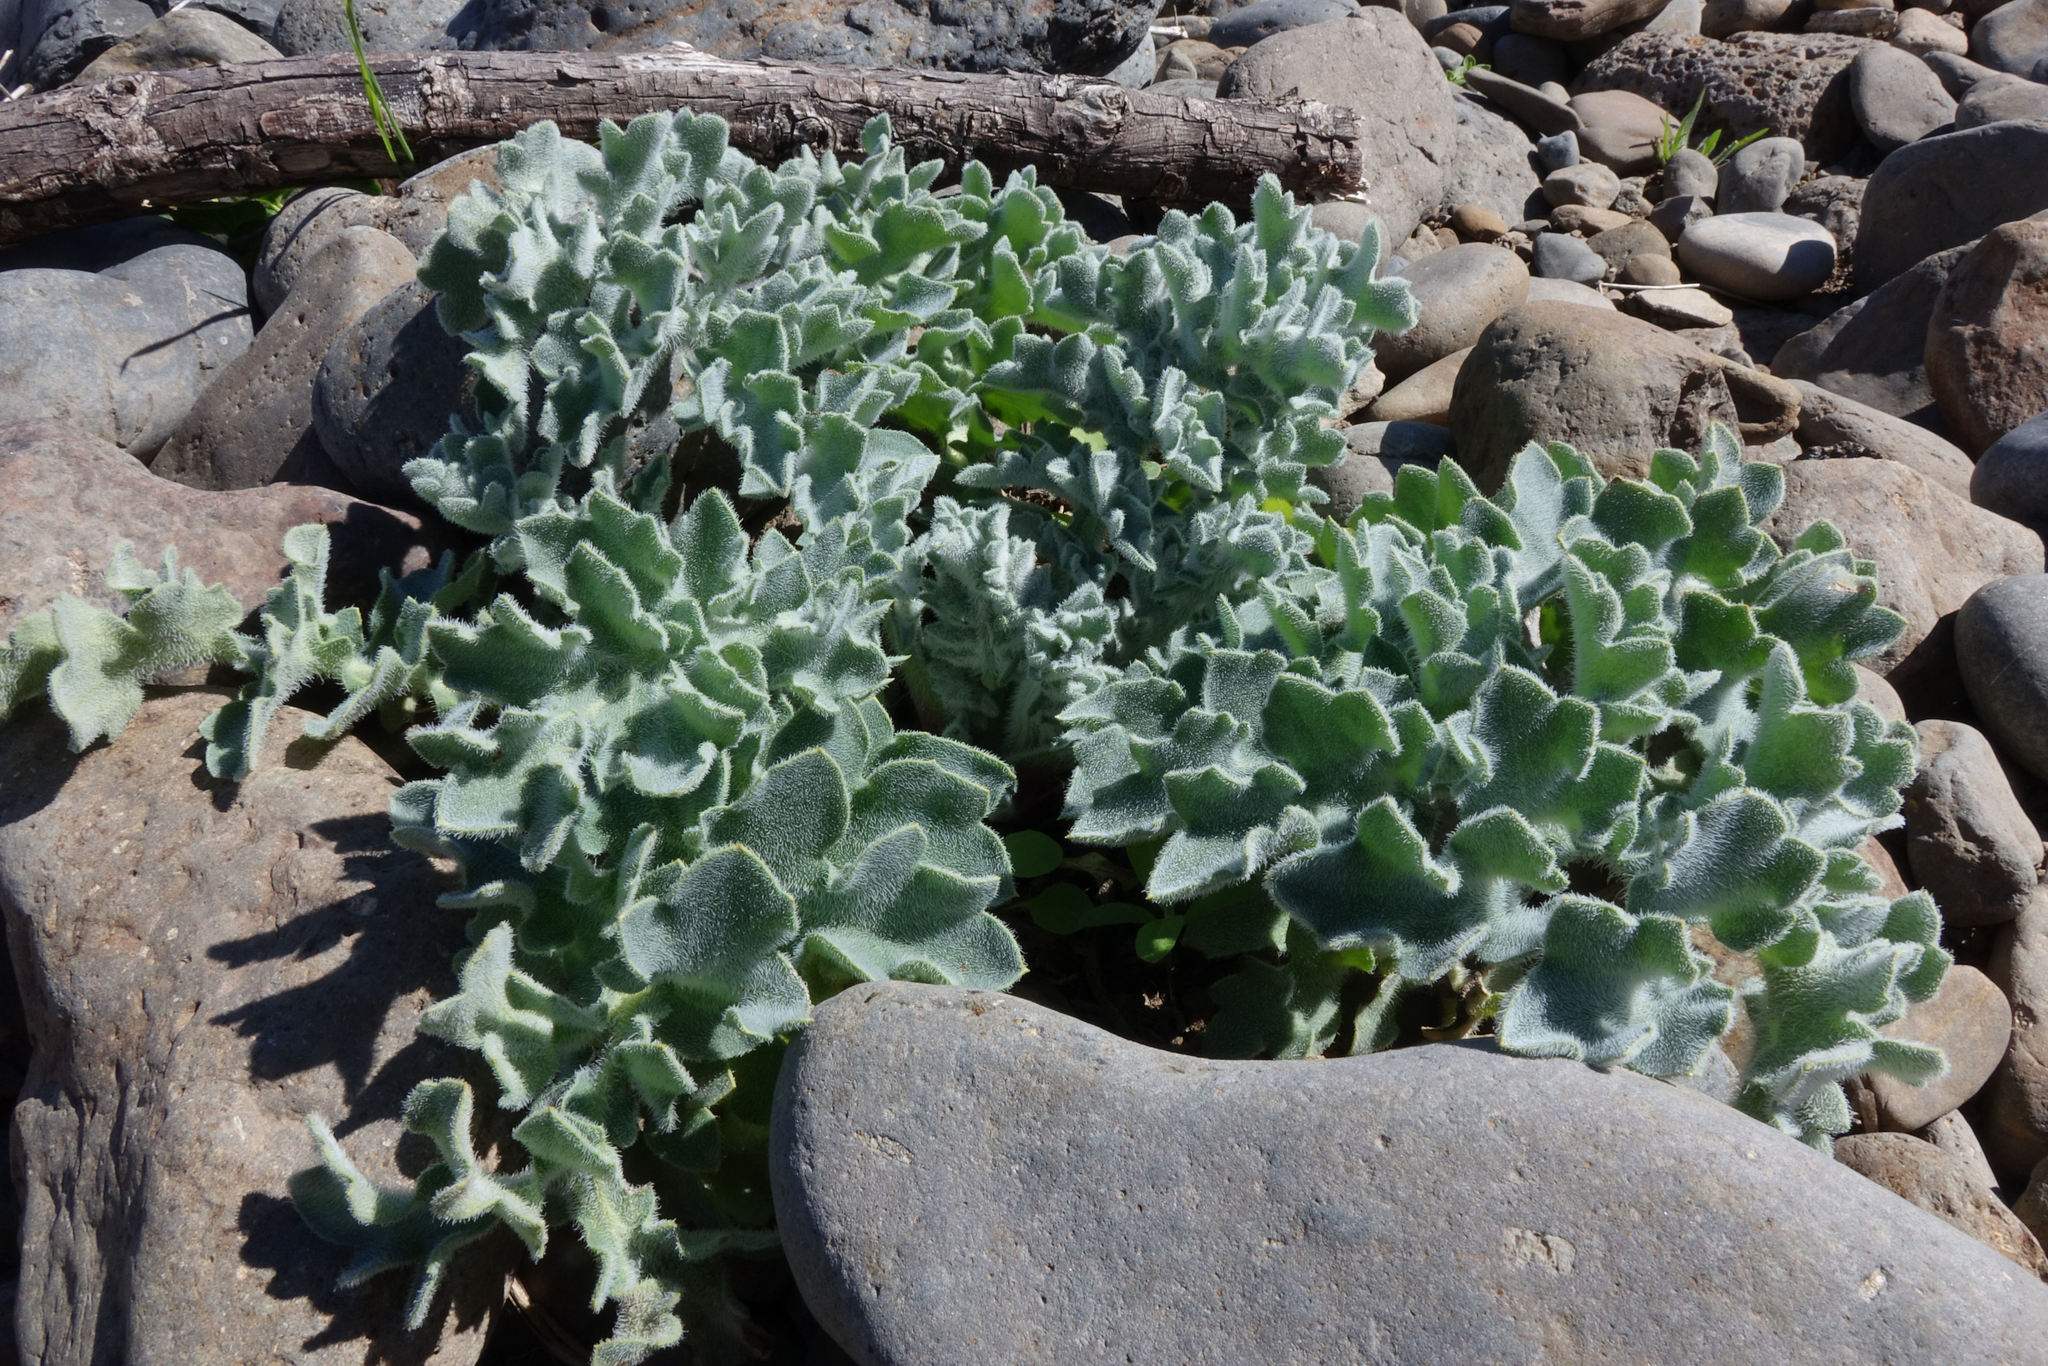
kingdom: Plantae
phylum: Tracheophyta
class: Magnoliopsida
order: Ranunculales
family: Papaveraceae
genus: Glaucium
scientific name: Glaucium flavum
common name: Yellow horned-poppy
